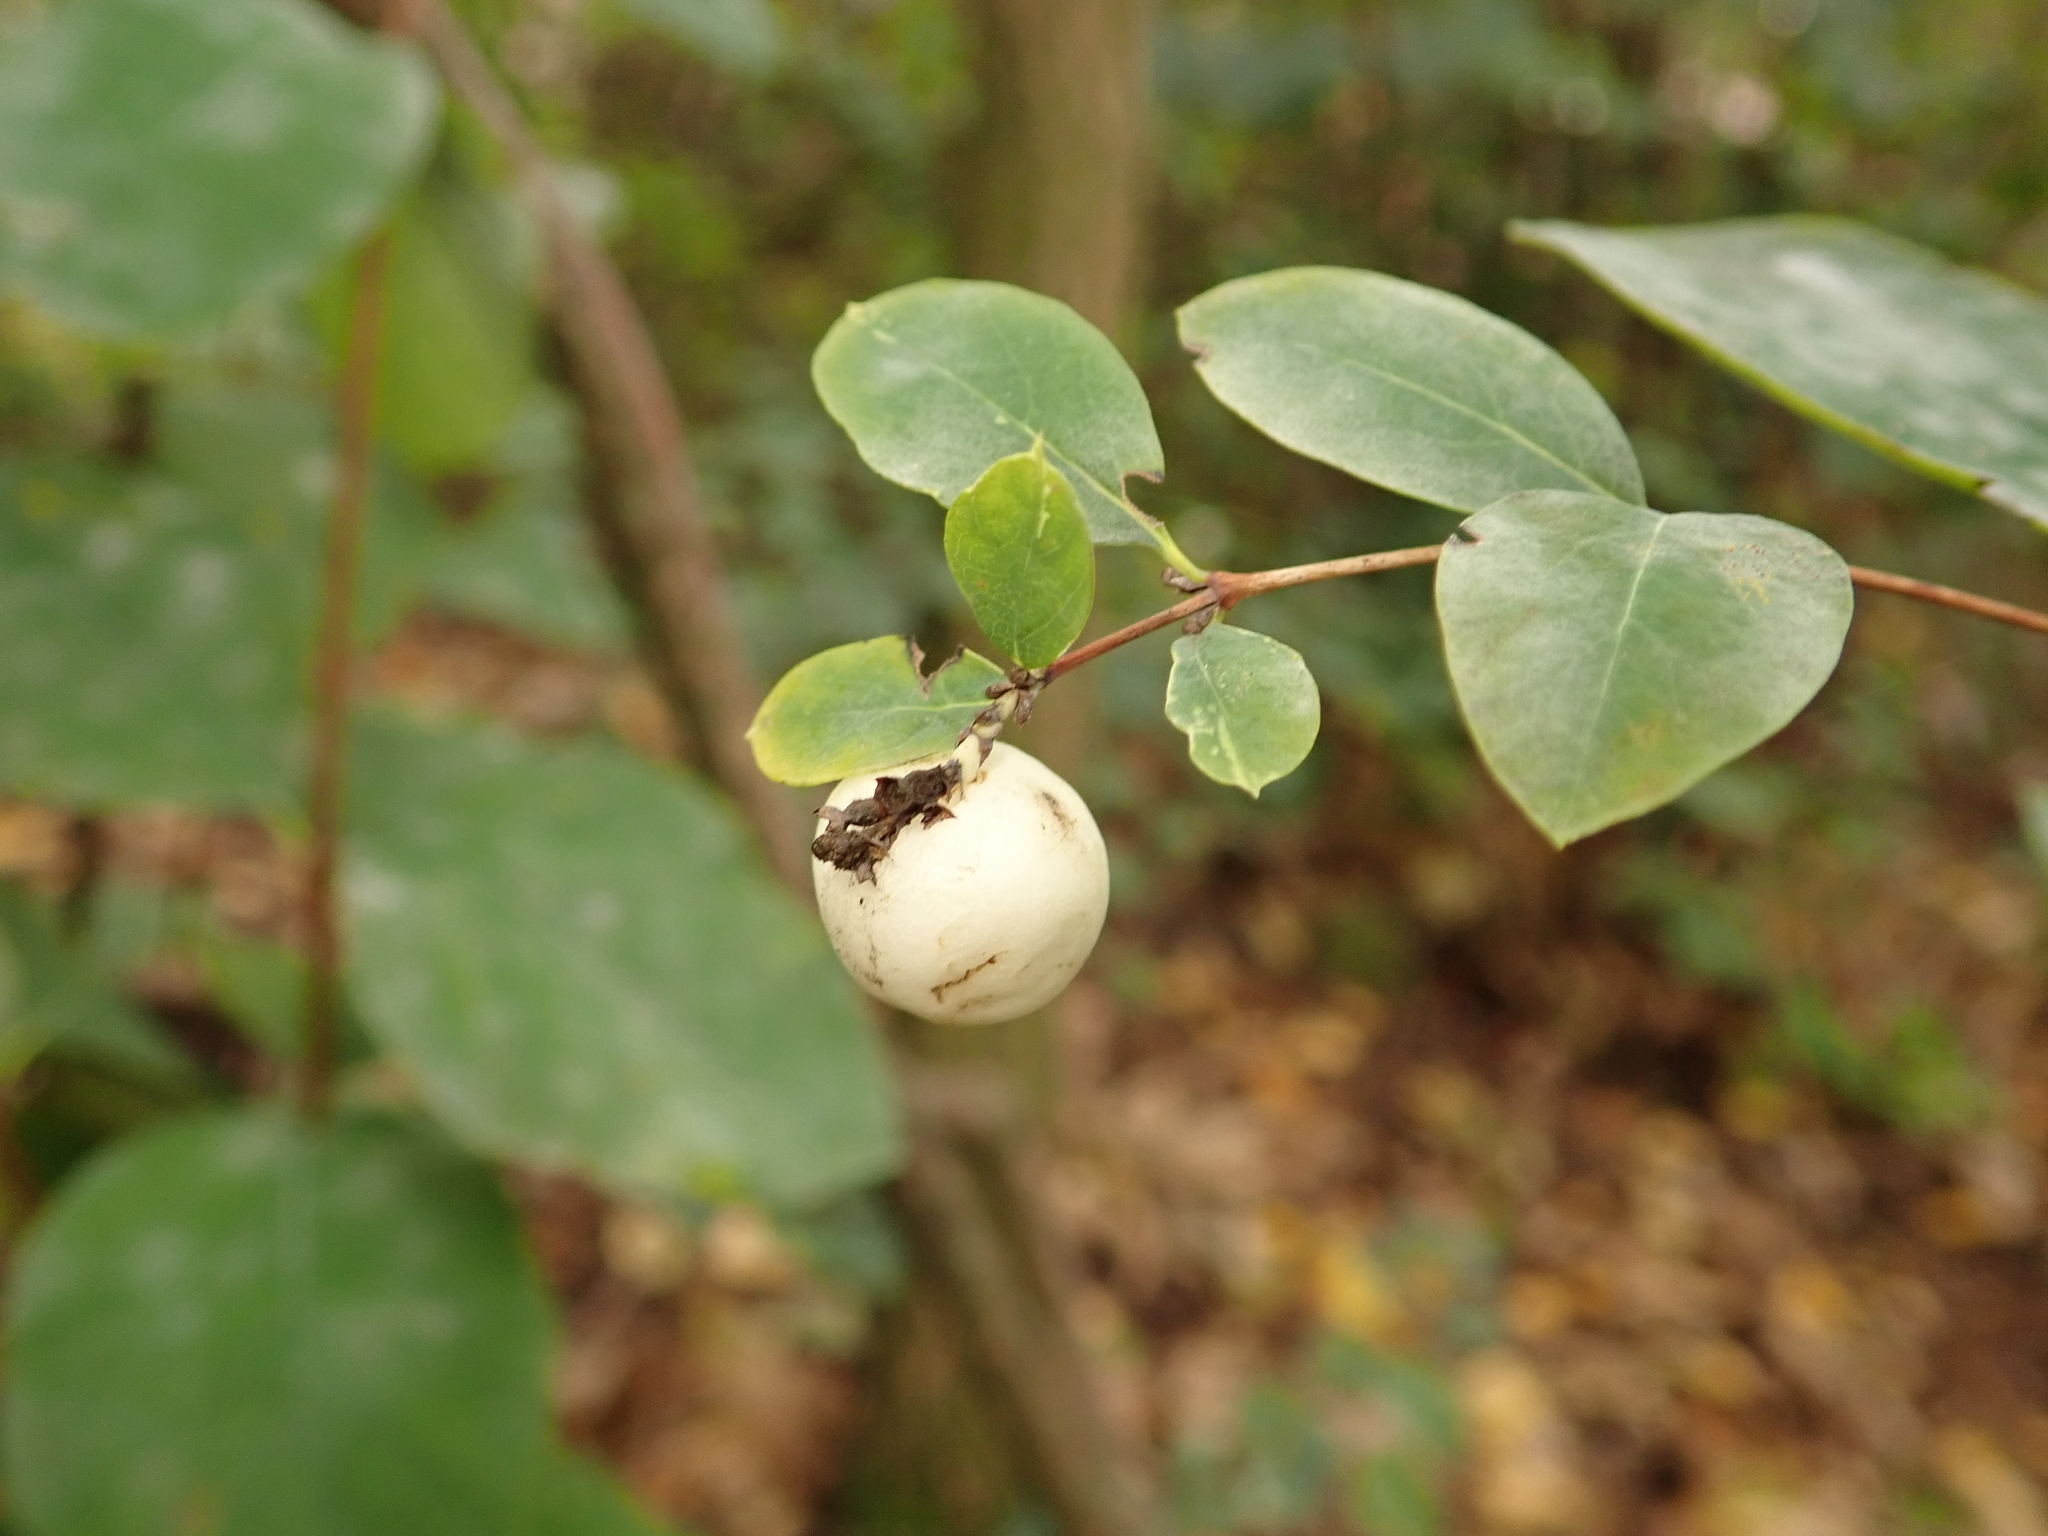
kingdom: Plantae
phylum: Tracheophyta
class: Magnoliopsida
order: Dipsacales
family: Caprifoliaceae
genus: Symphoricarpos
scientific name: Symphoricarpos albus
